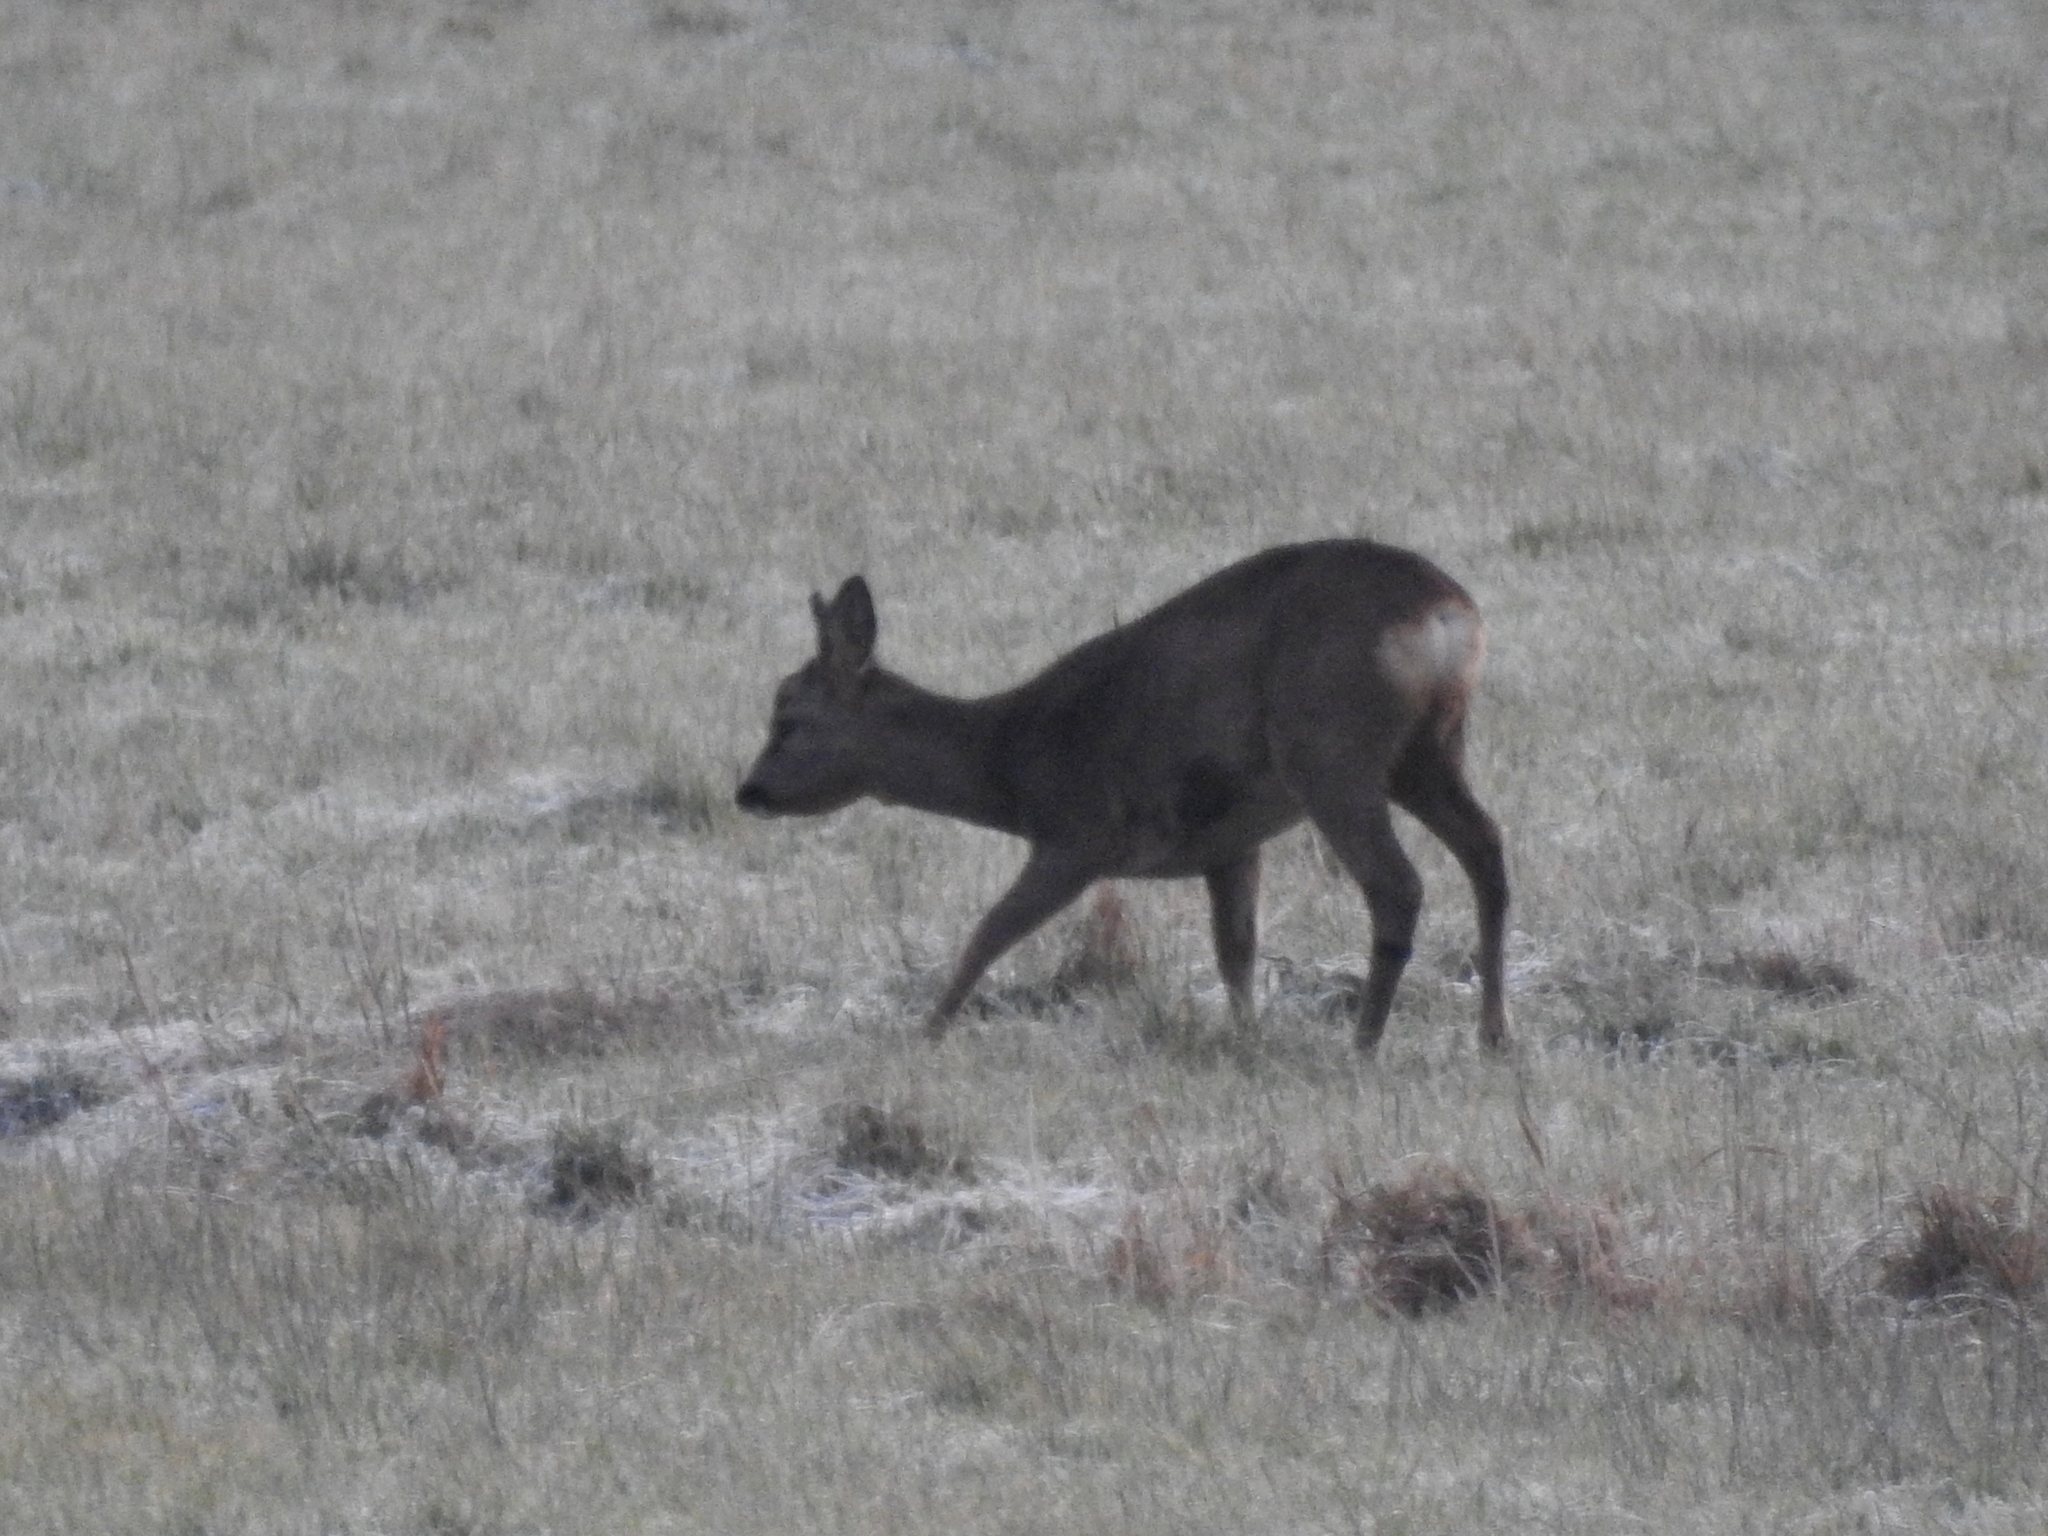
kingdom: Animalia
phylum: Chordata
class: Mammalia
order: Artiodactyla
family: Cervidae
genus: Capreolus
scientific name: Capreolus capreolus
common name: Western roe deer
